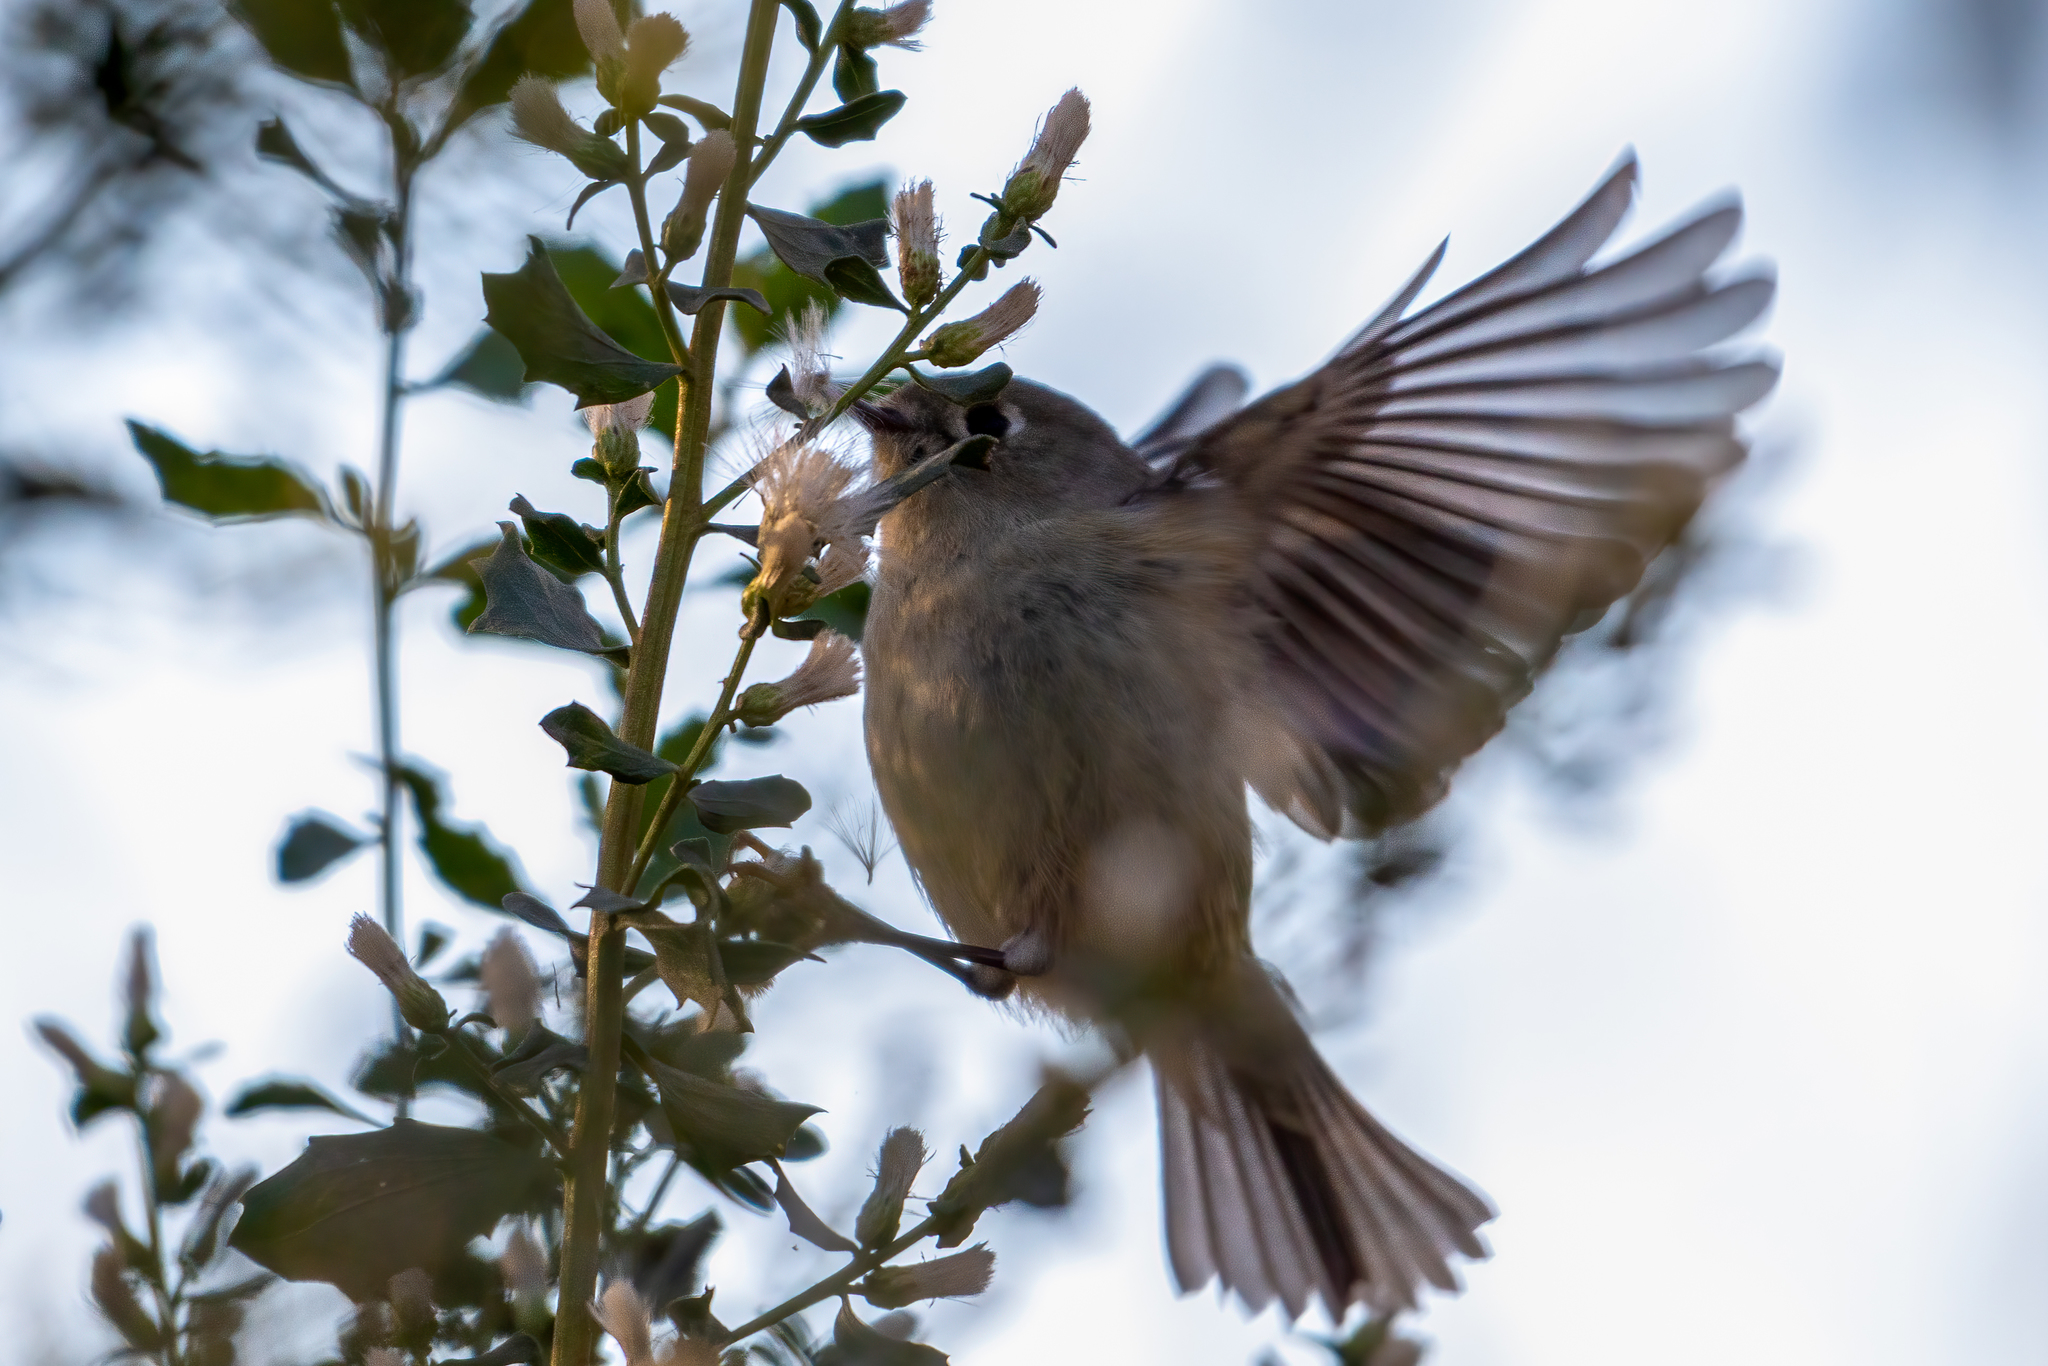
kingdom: Animalia
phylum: Chordata
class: Aves
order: Passeriformes
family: Regulidae
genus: Regulus
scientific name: Regulus calendula
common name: Ruby-crowned kinglet
